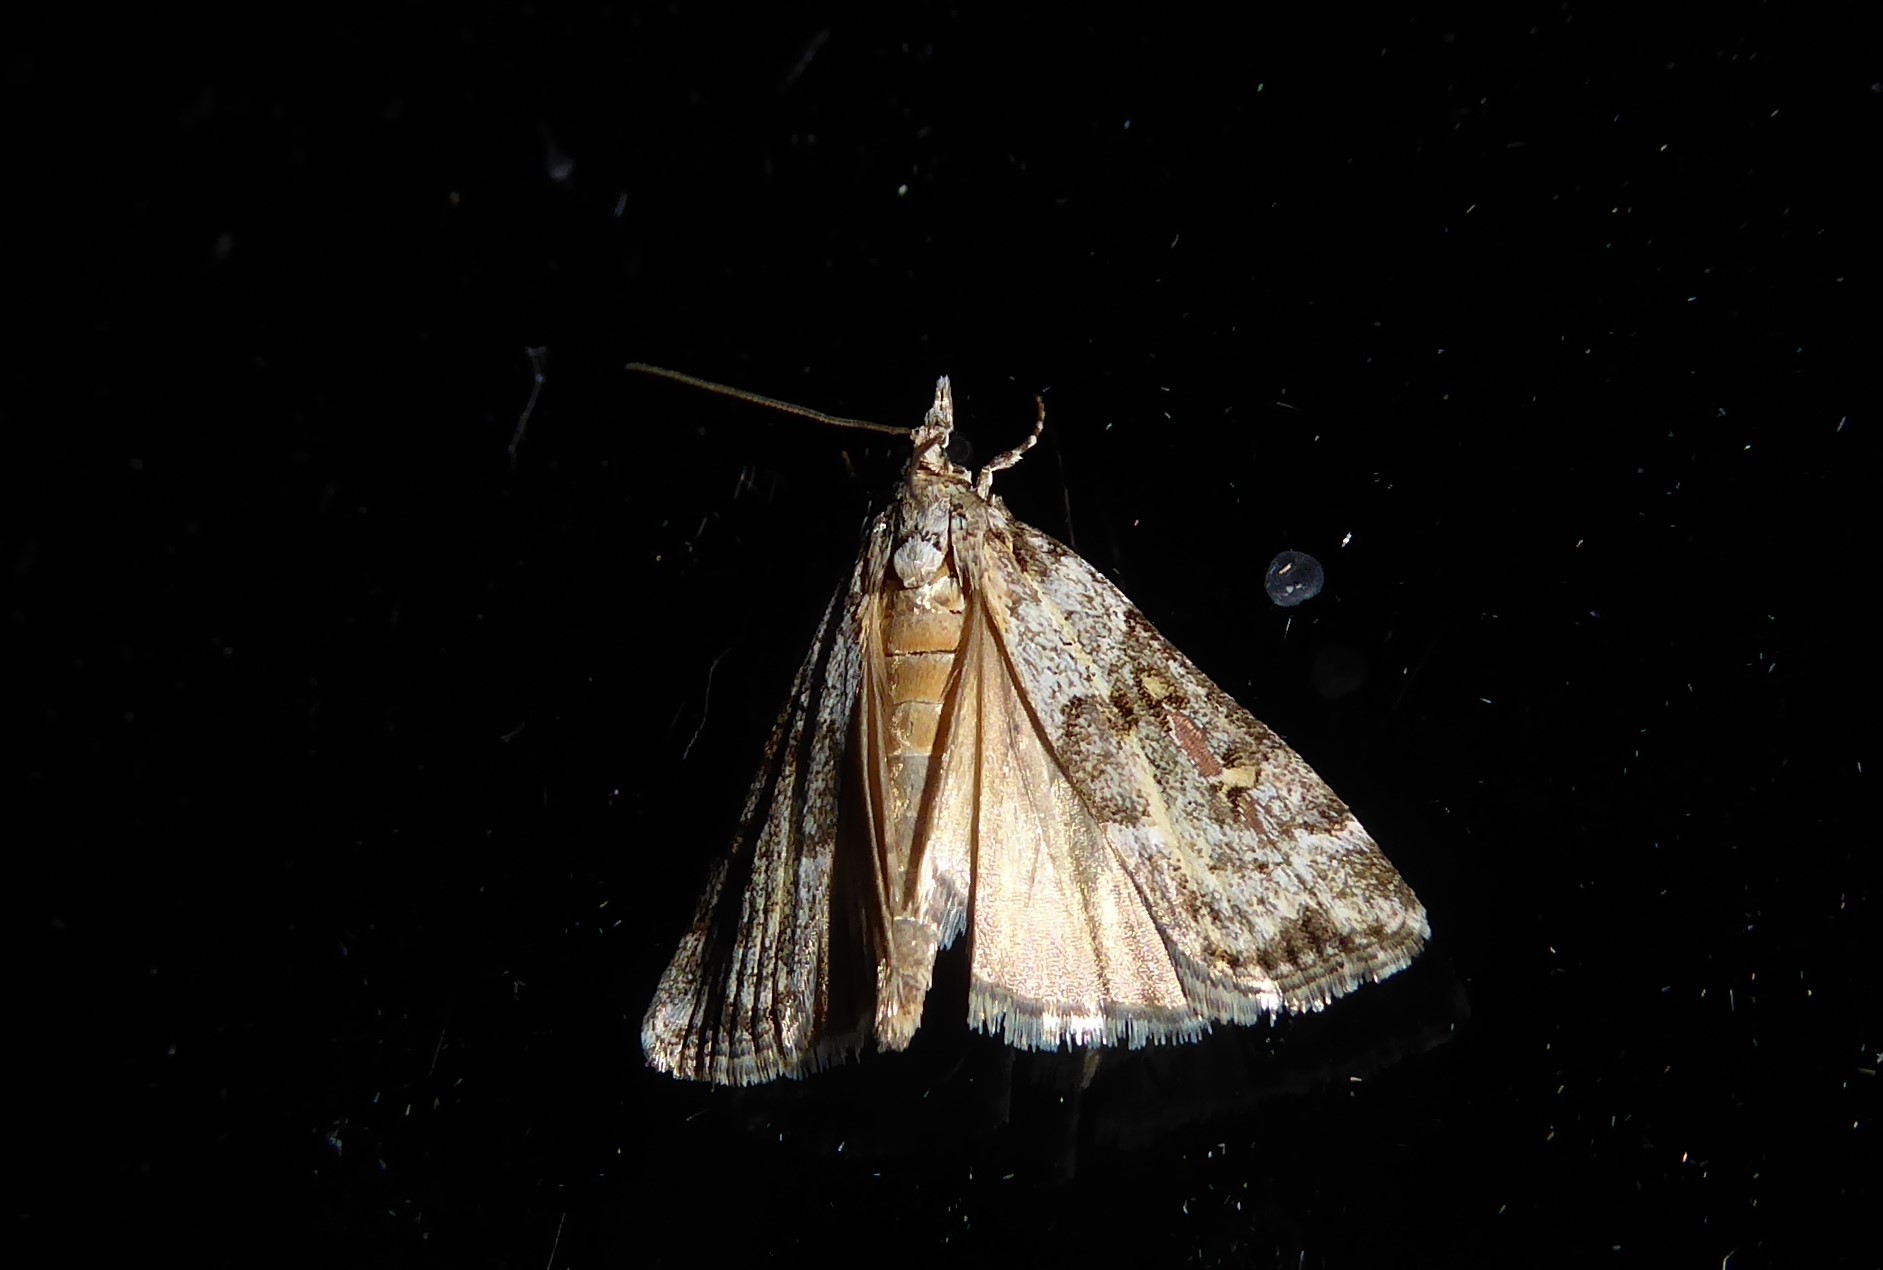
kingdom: Animalia
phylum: Arthropoda
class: Insecta
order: Lepidoptera
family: Crambidae
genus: Eudonia
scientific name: Eudonia diphtheralis
